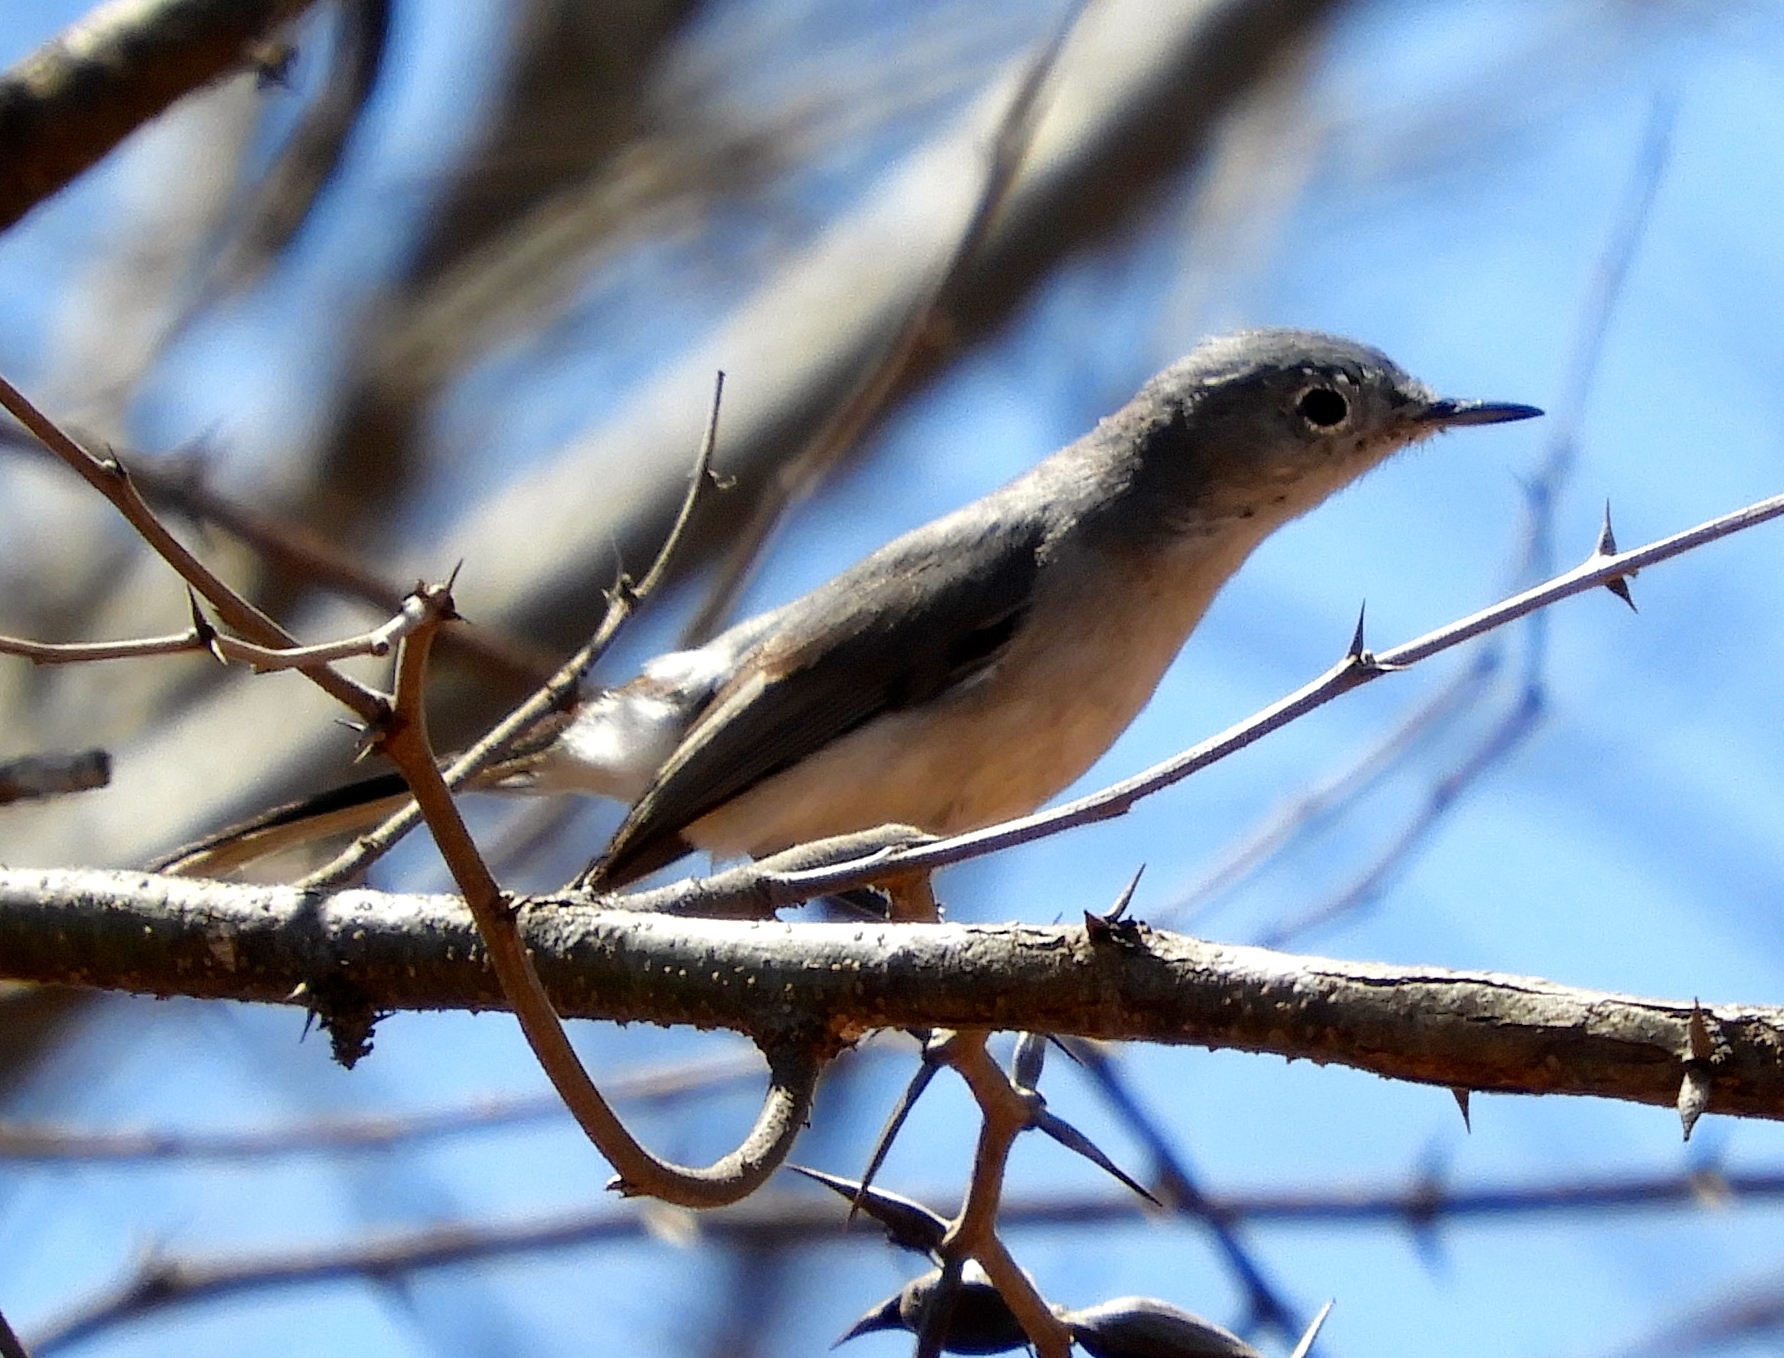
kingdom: Animalia
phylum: Chordata
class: Aves
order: Passeriformes
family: Polioptilidae
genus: Polioptila
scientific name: Polioptila caerulea
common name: Blue-gray gnatcatcher
